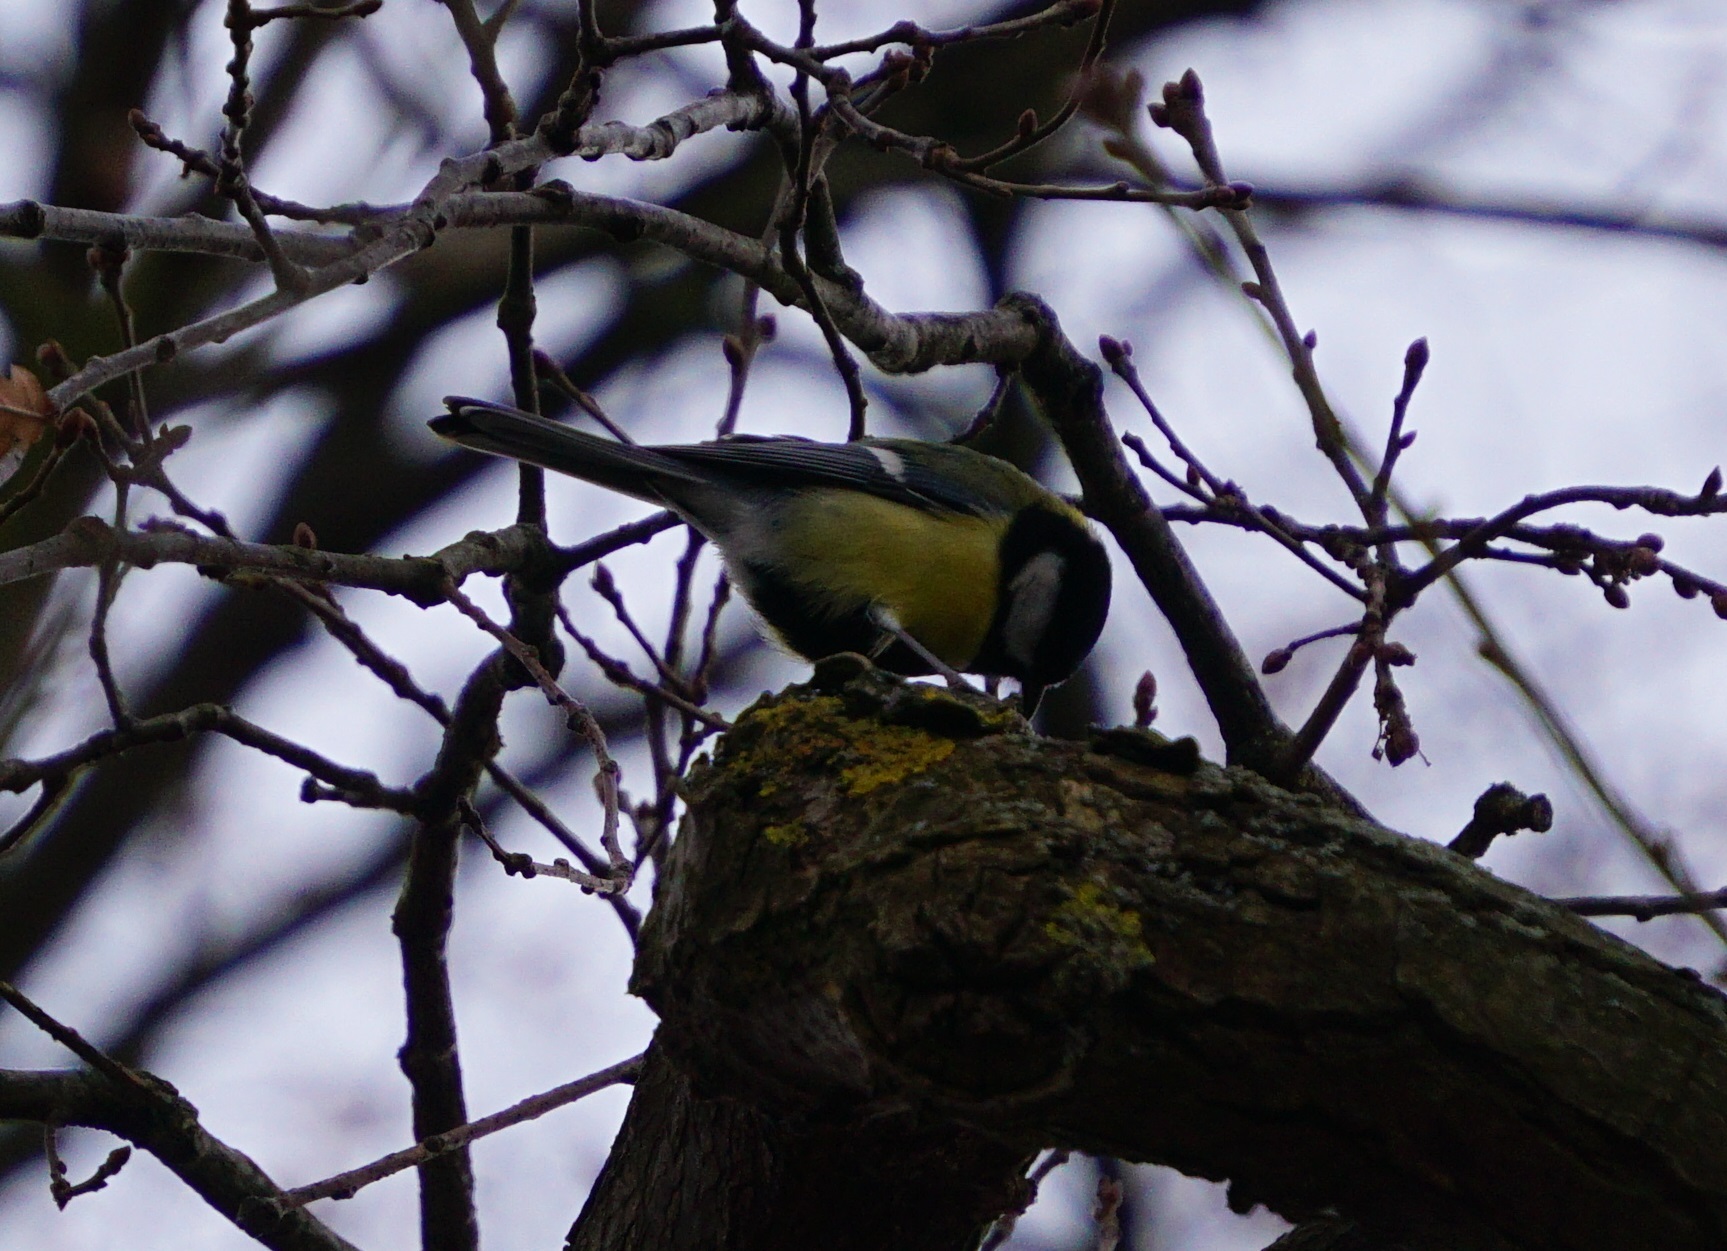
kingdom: Animalia
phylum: Chordata
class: Aves
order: Passeriformes
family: Paridae
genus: Parus
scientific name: Parus major
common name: Great tit
